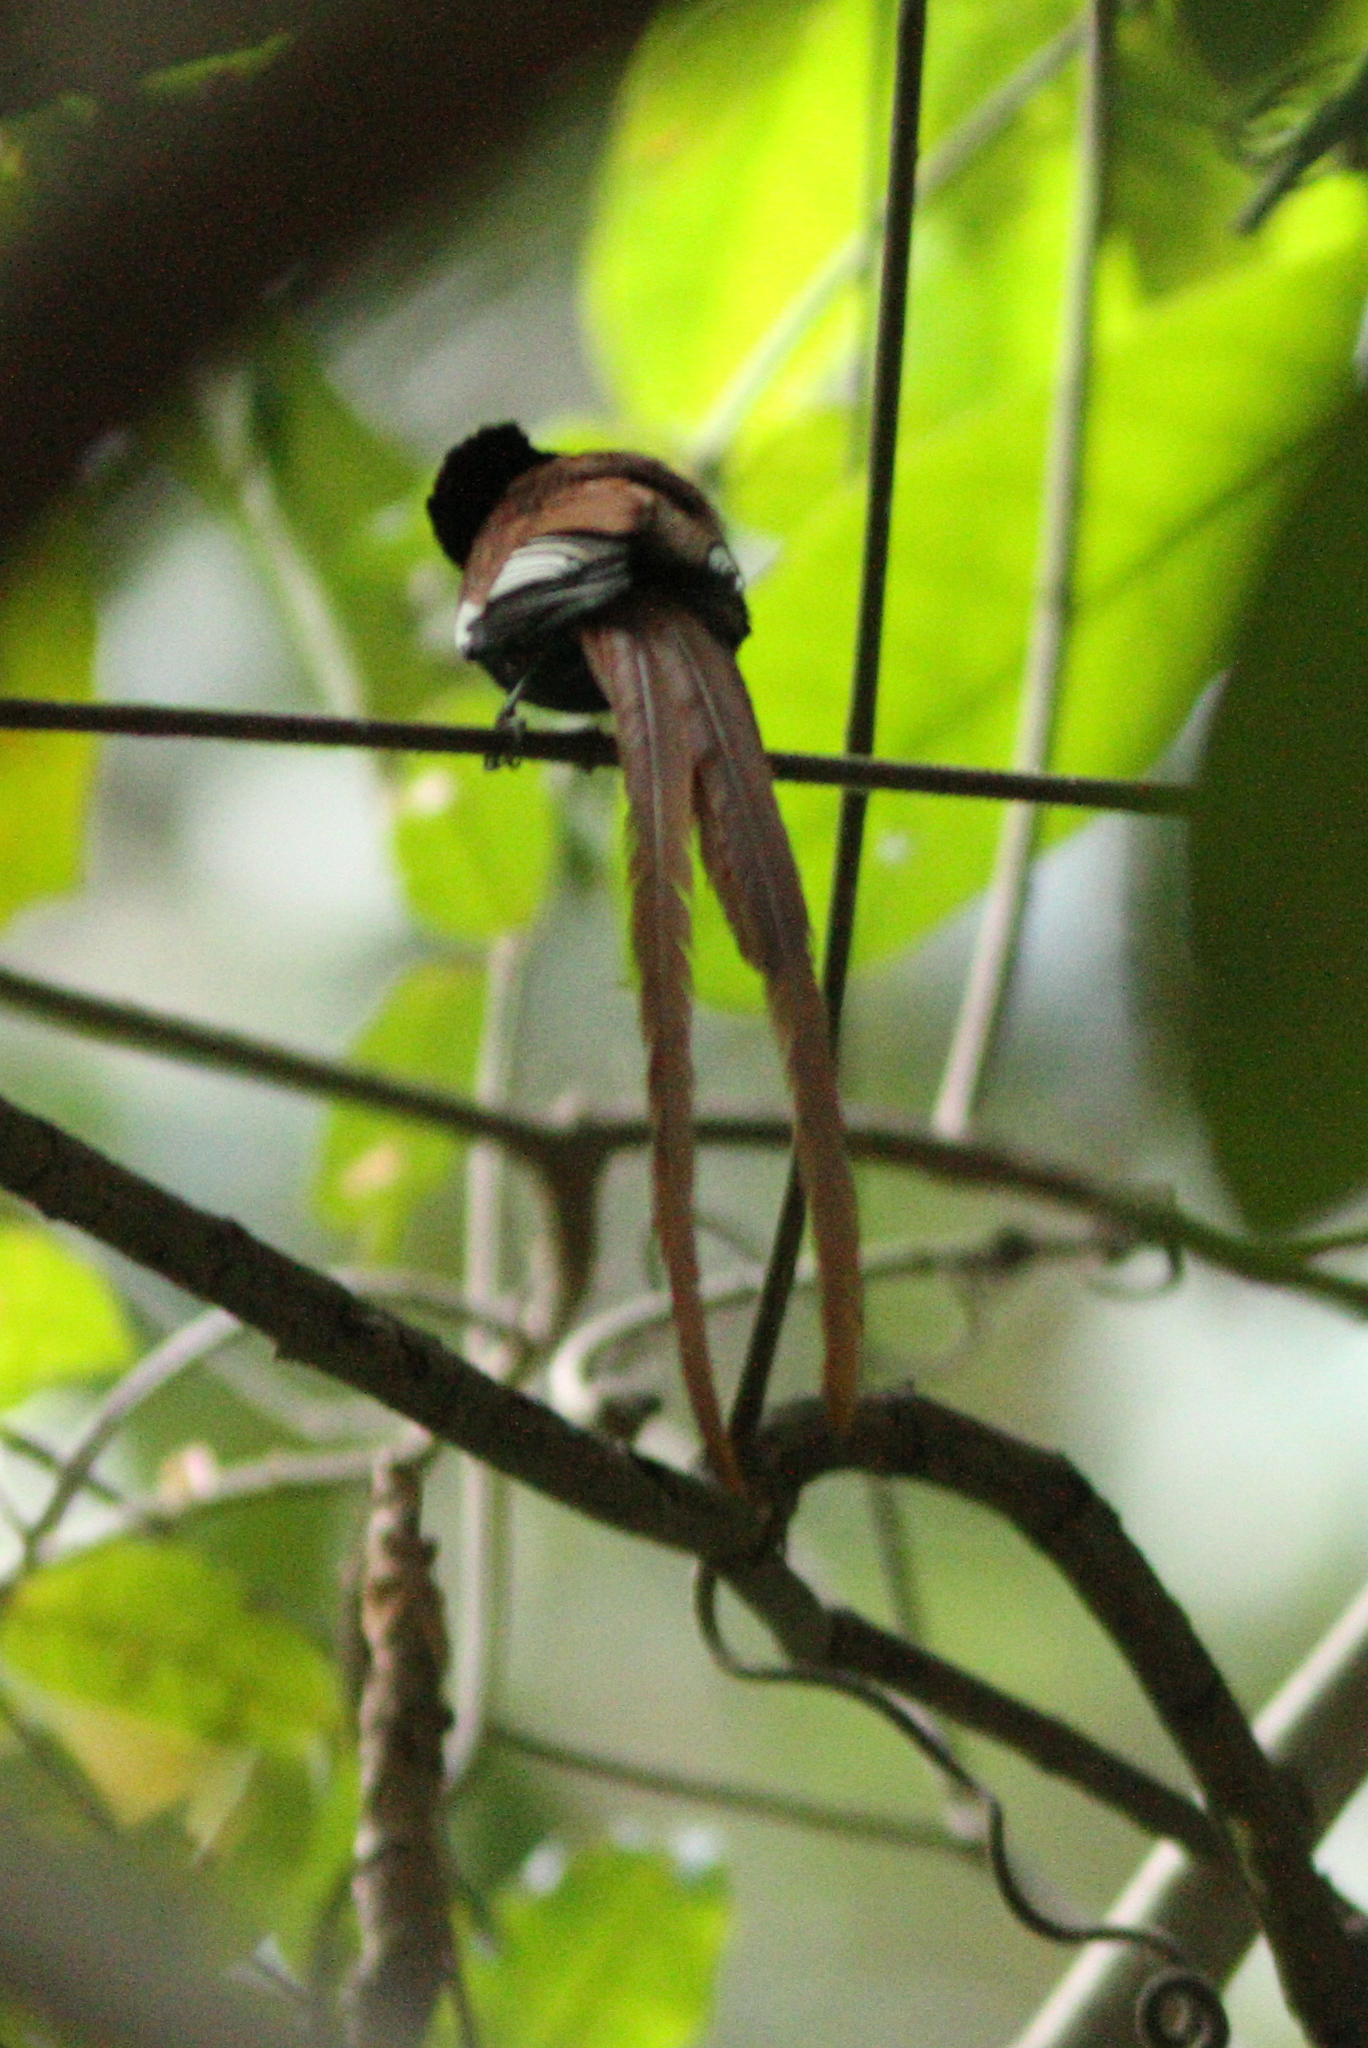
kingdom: Animalia
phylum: Chordata
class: Aves
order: Passeriformes
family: Monarchidae
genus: Terpsiphone
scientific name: Terpsiphone viridis
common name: African paradise flycatcher
